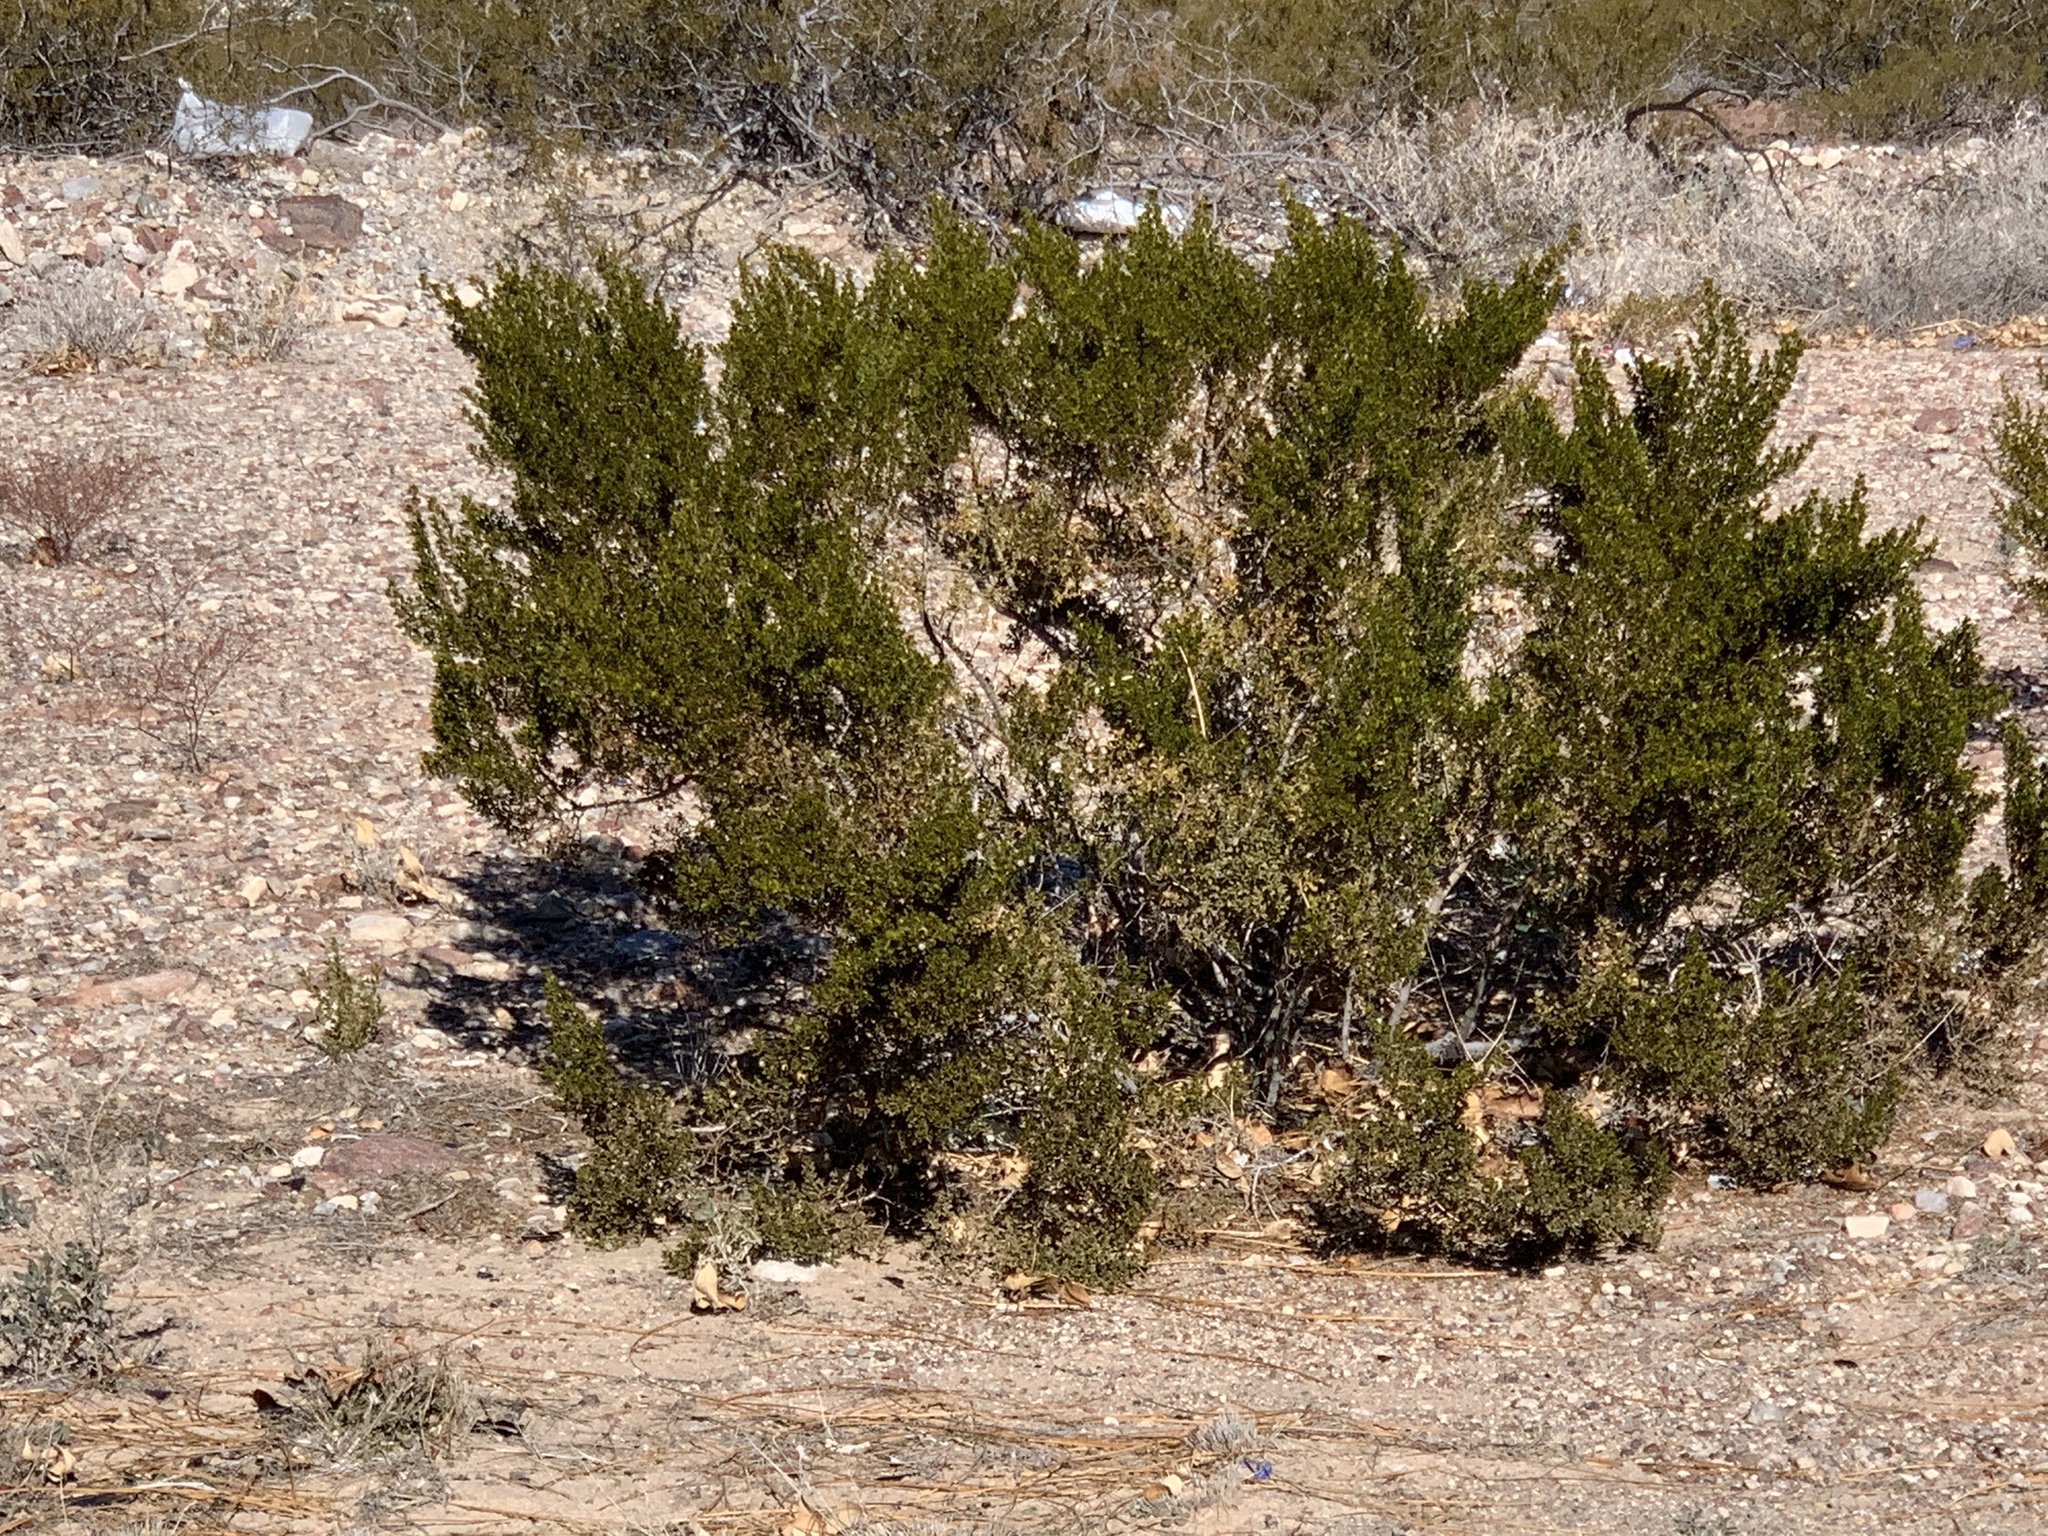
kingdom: Plantae
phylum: Tracheophyta
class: Magnoliopsida
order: Zygophyllales
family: Zygophyllaceae
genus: Larrea
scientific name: Larrea tridentata
